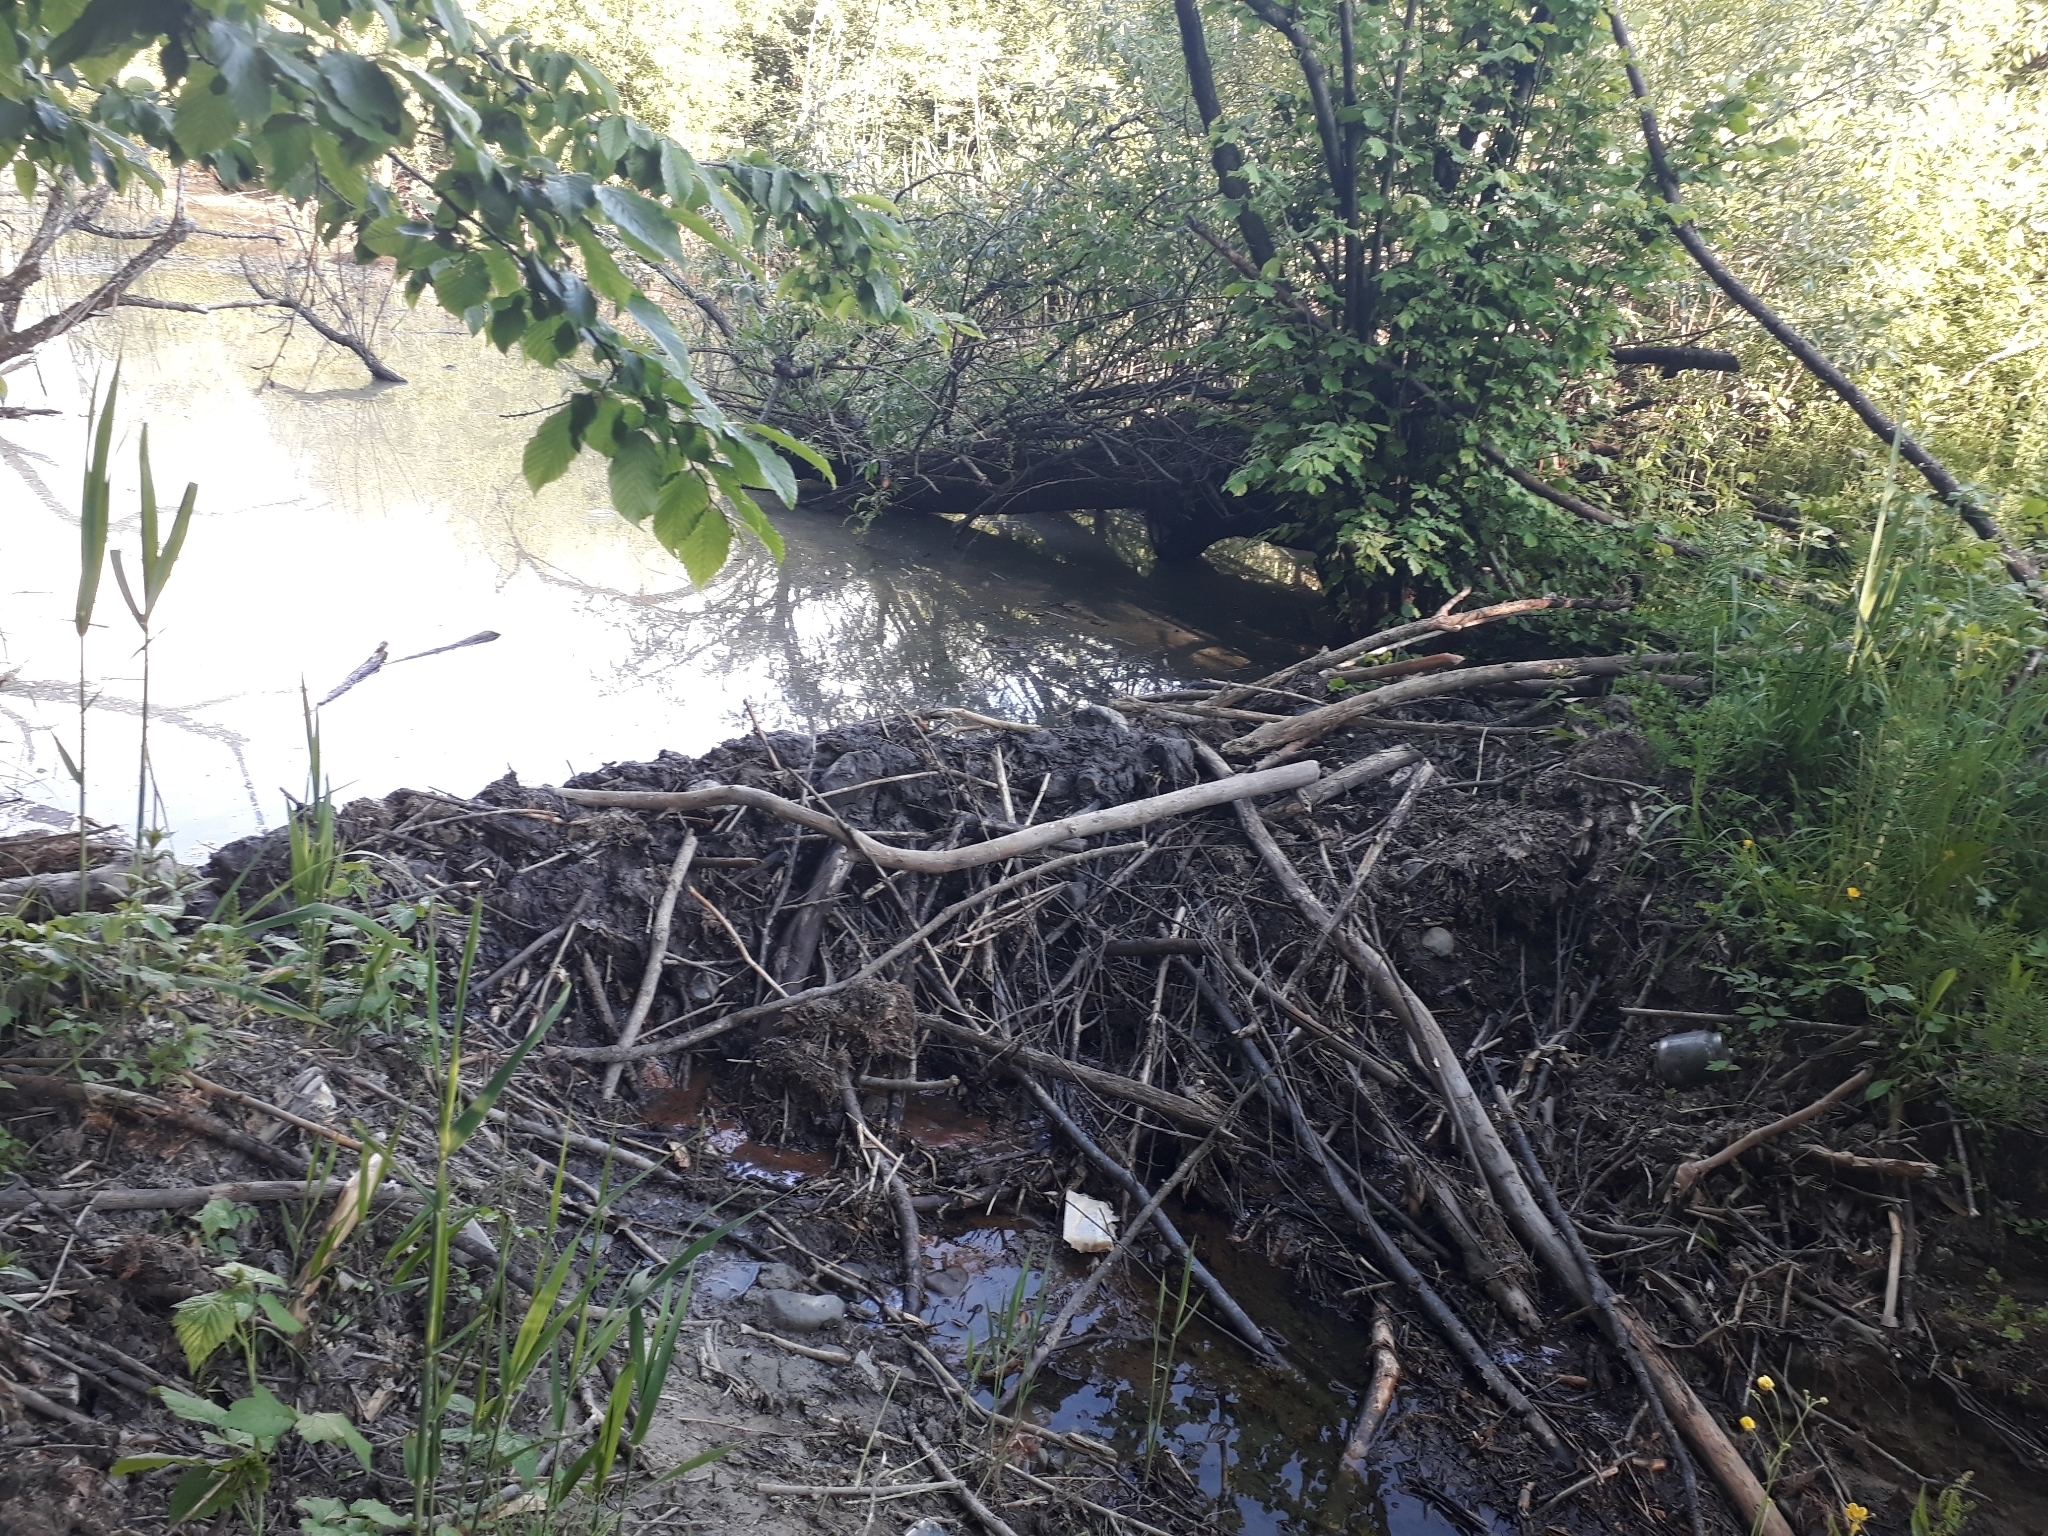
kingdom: Animalia
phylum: Chordata
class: Mammalia
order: Rodentia
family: Castoridae
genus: Castor
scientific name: Castor fiber
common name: Eurasian beaver
